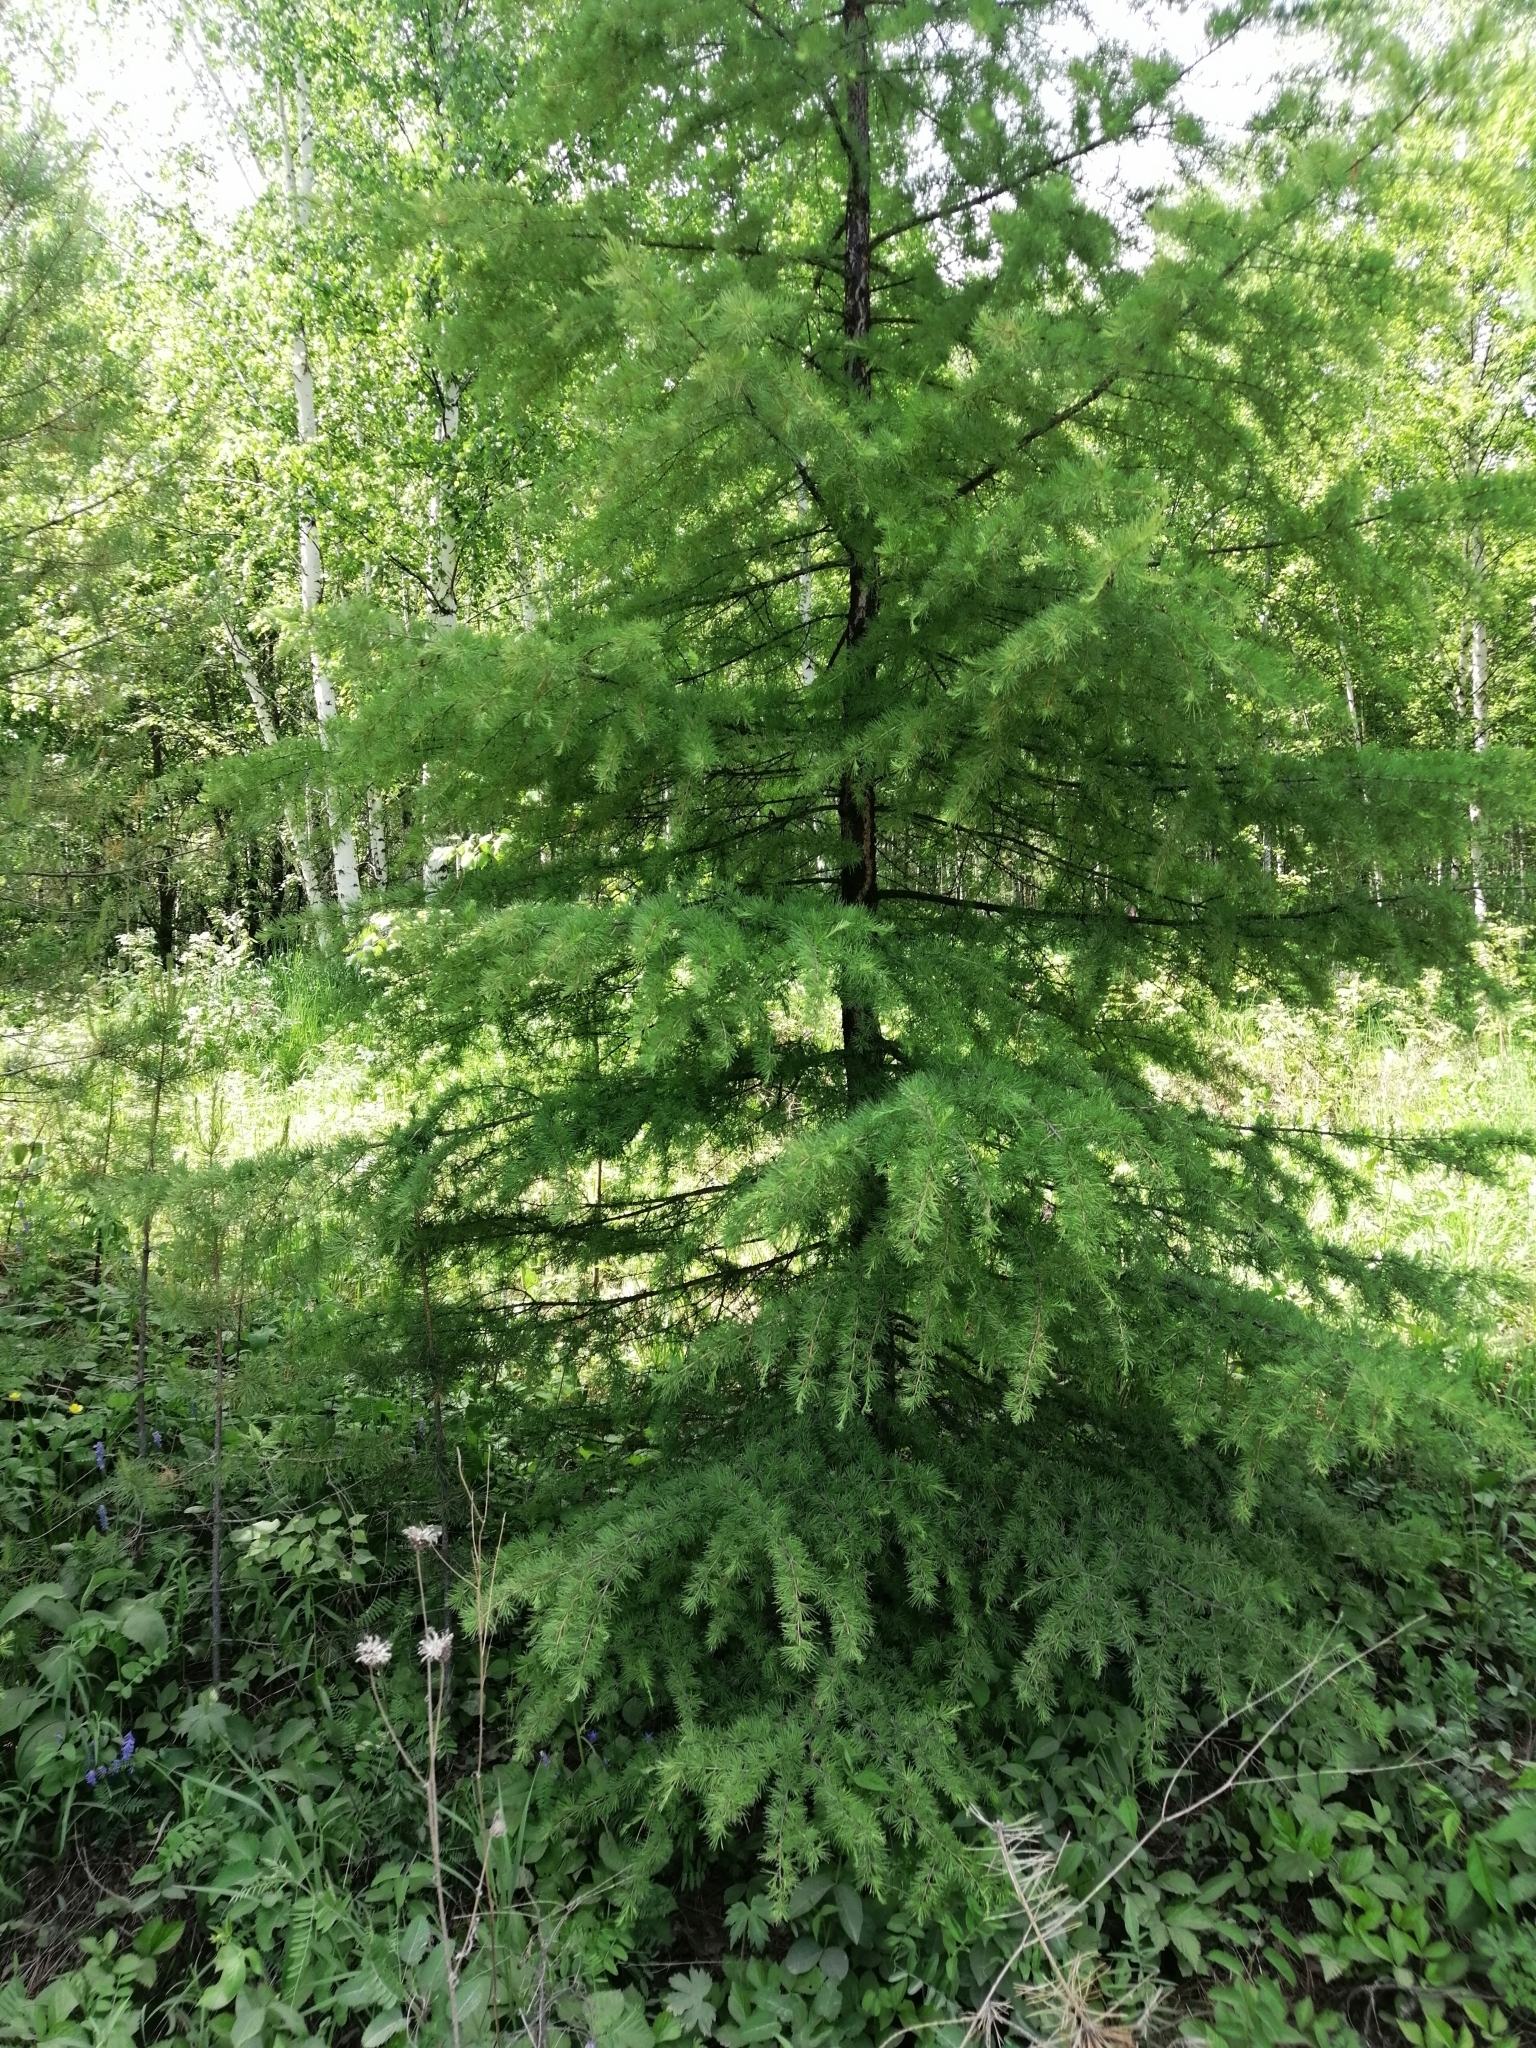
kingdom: Plantae
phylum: Tracheophyta
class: Pinopsida
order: Pinales
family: Pinaceae
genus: Larix
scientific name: Larix gmelinii
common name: Dahurian larch
